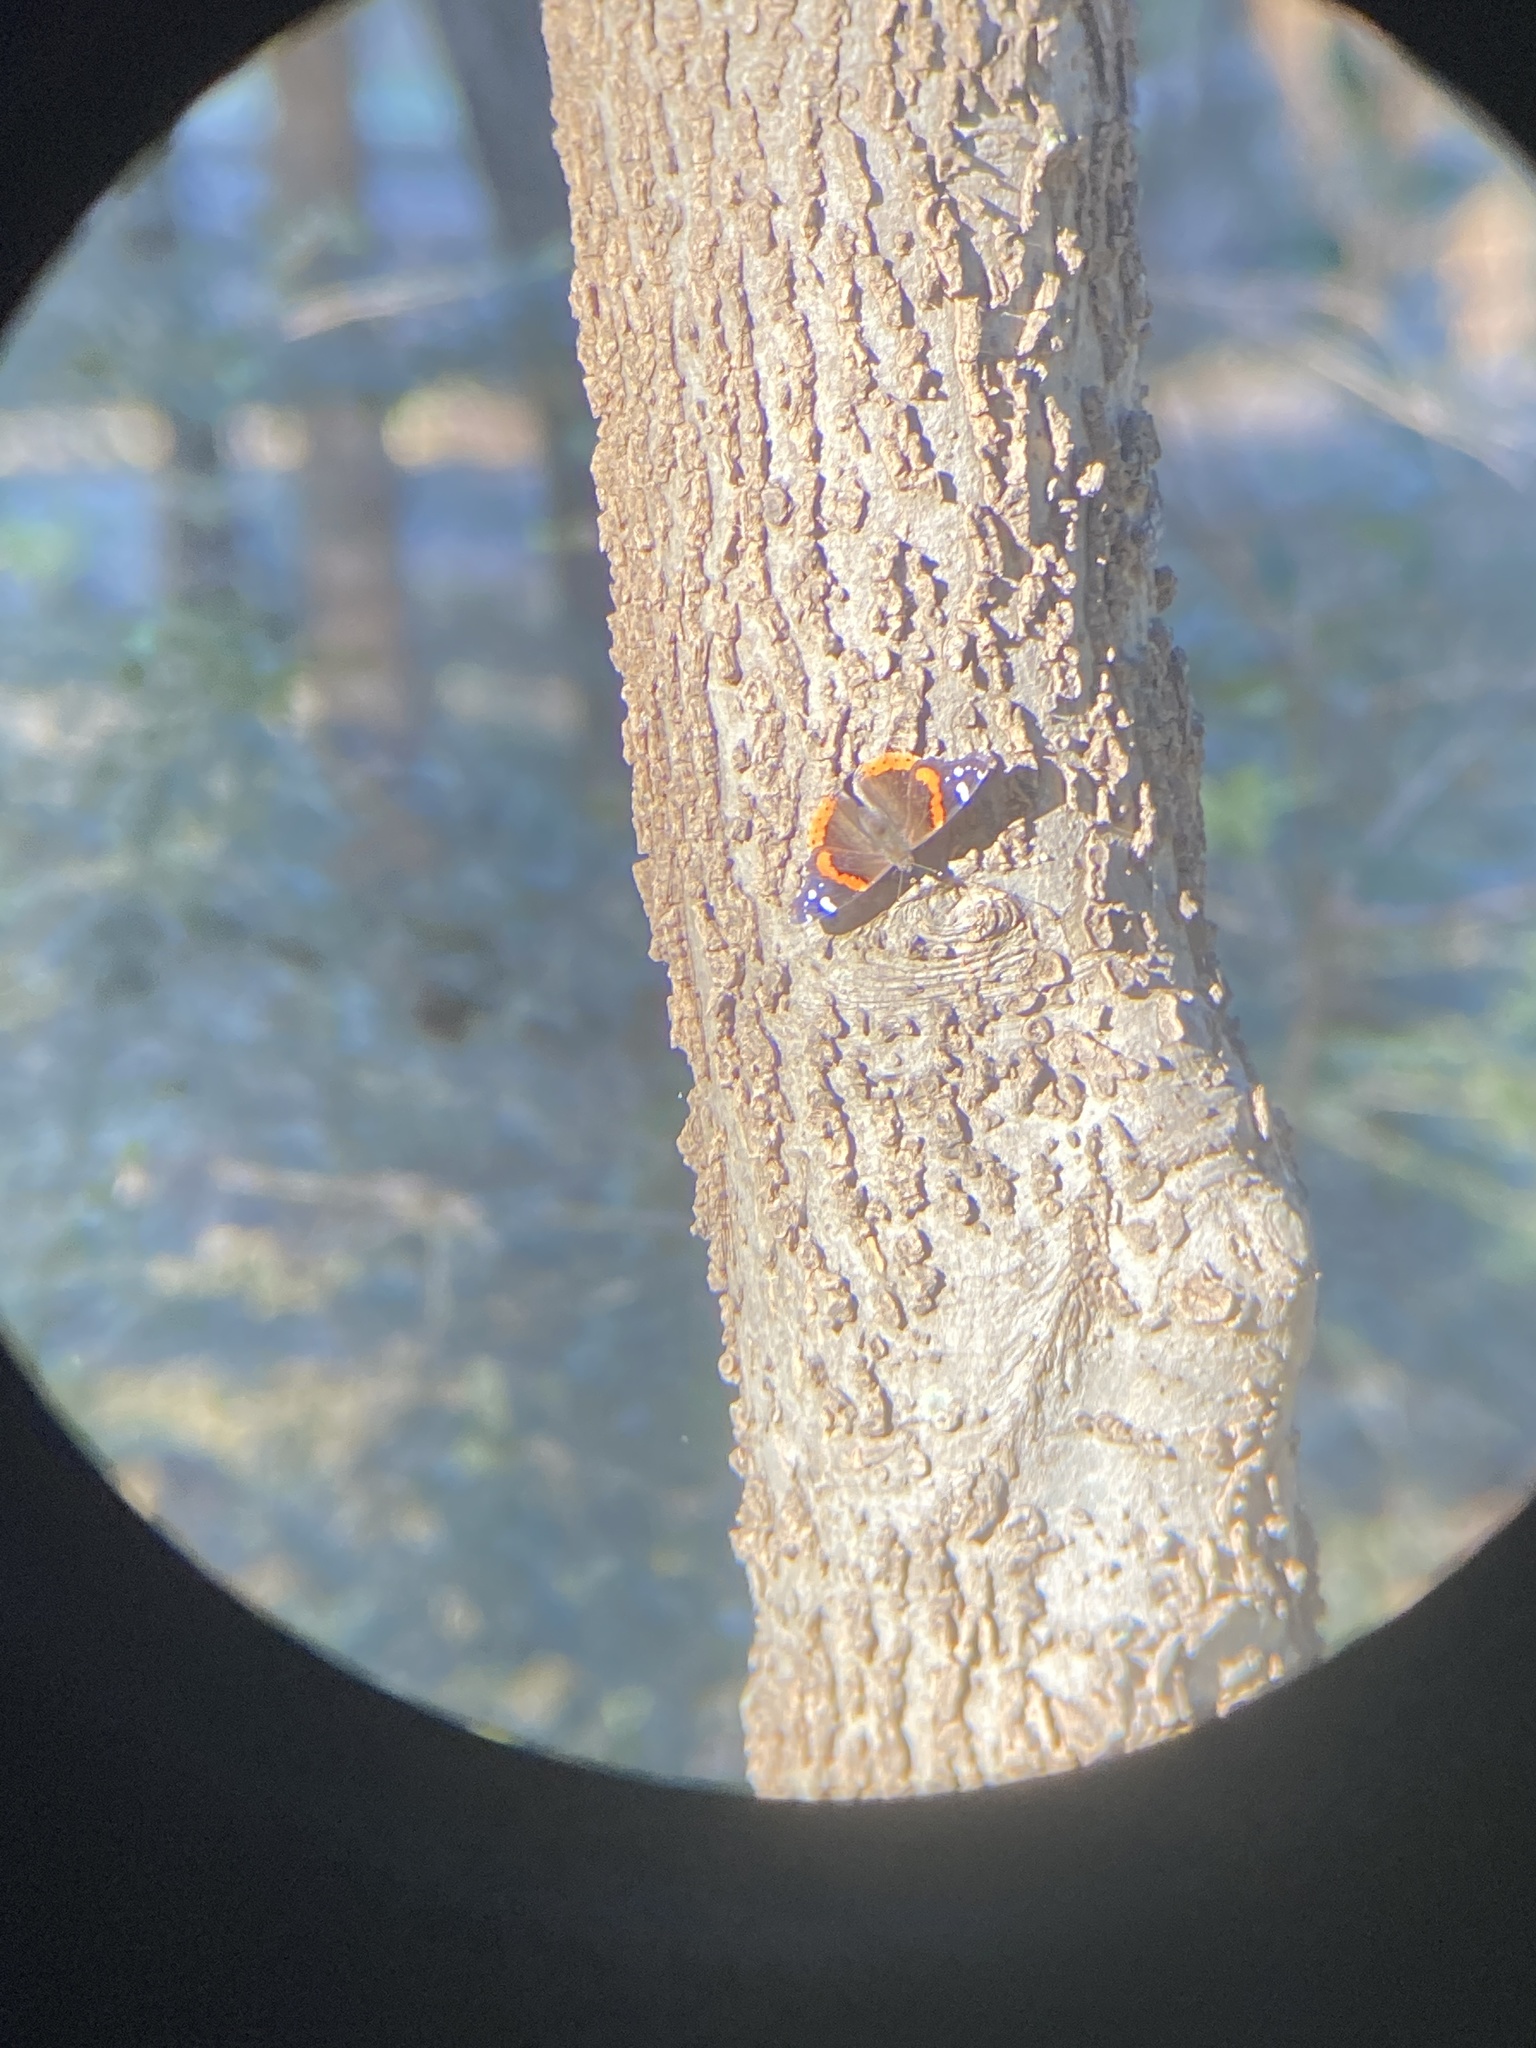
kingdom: Animalia
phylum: Arthropoda
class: Insecta
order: Lepidoptera
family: Nymphalidae
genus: Vanessa
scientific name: Vanessa atalanta
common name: Red admiral
